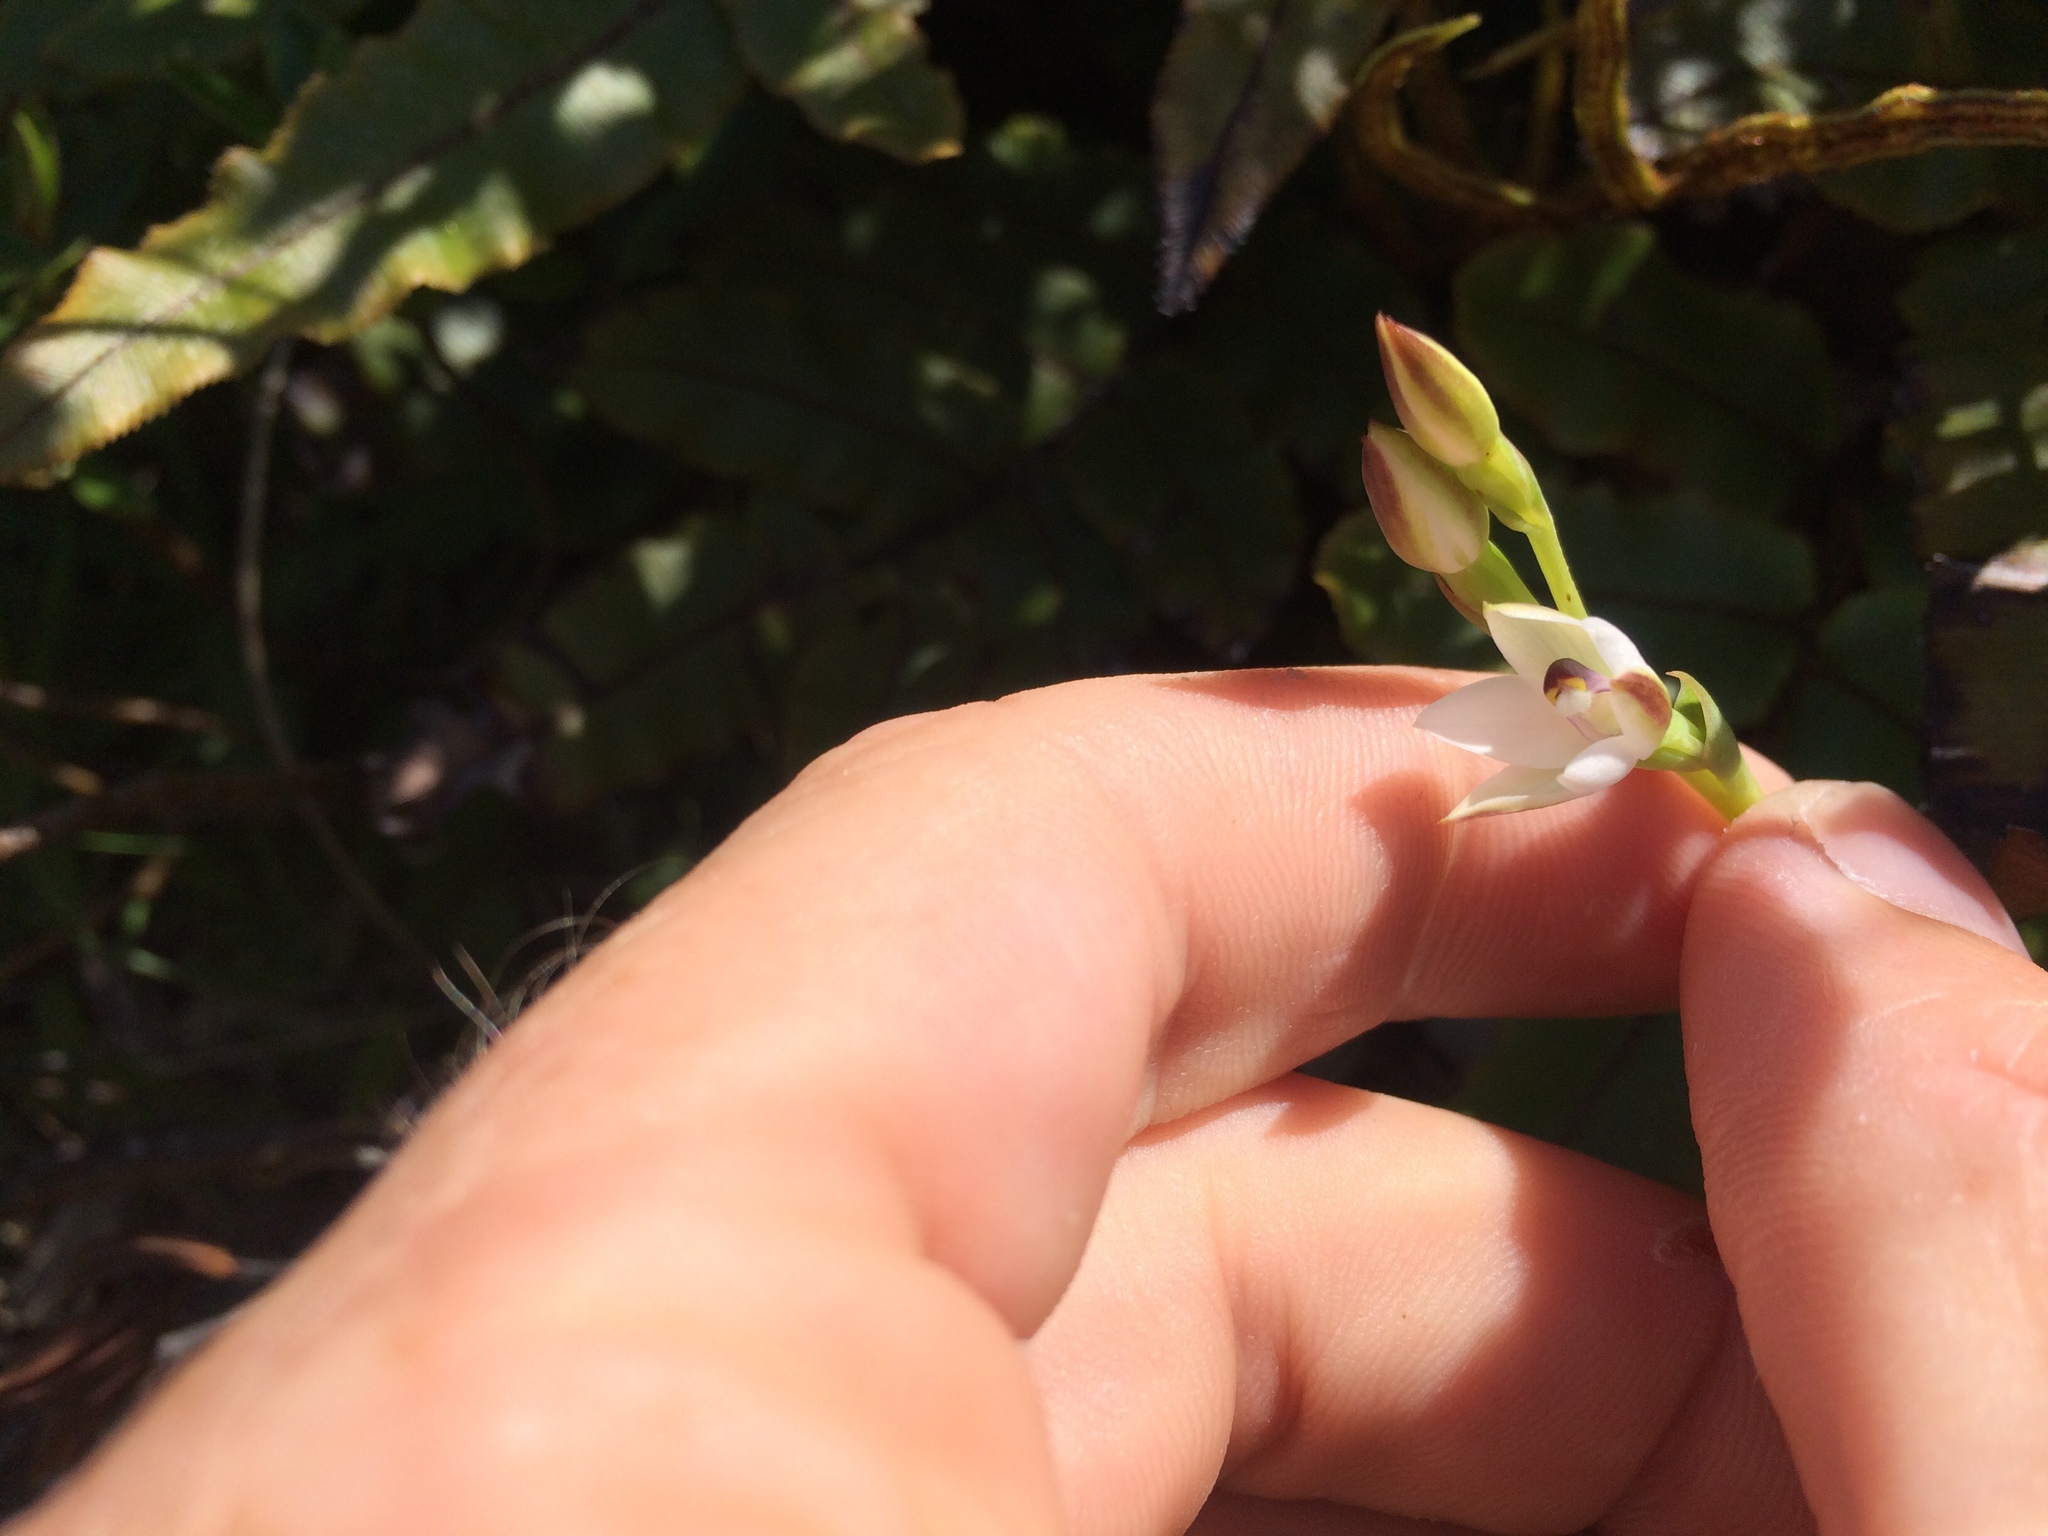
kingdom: Plantae
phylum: Tracheophyta
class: Liliopsida
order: Asparagales
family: Orchidaceae
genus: Thelymitra
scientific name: Thelymitra longifolia
